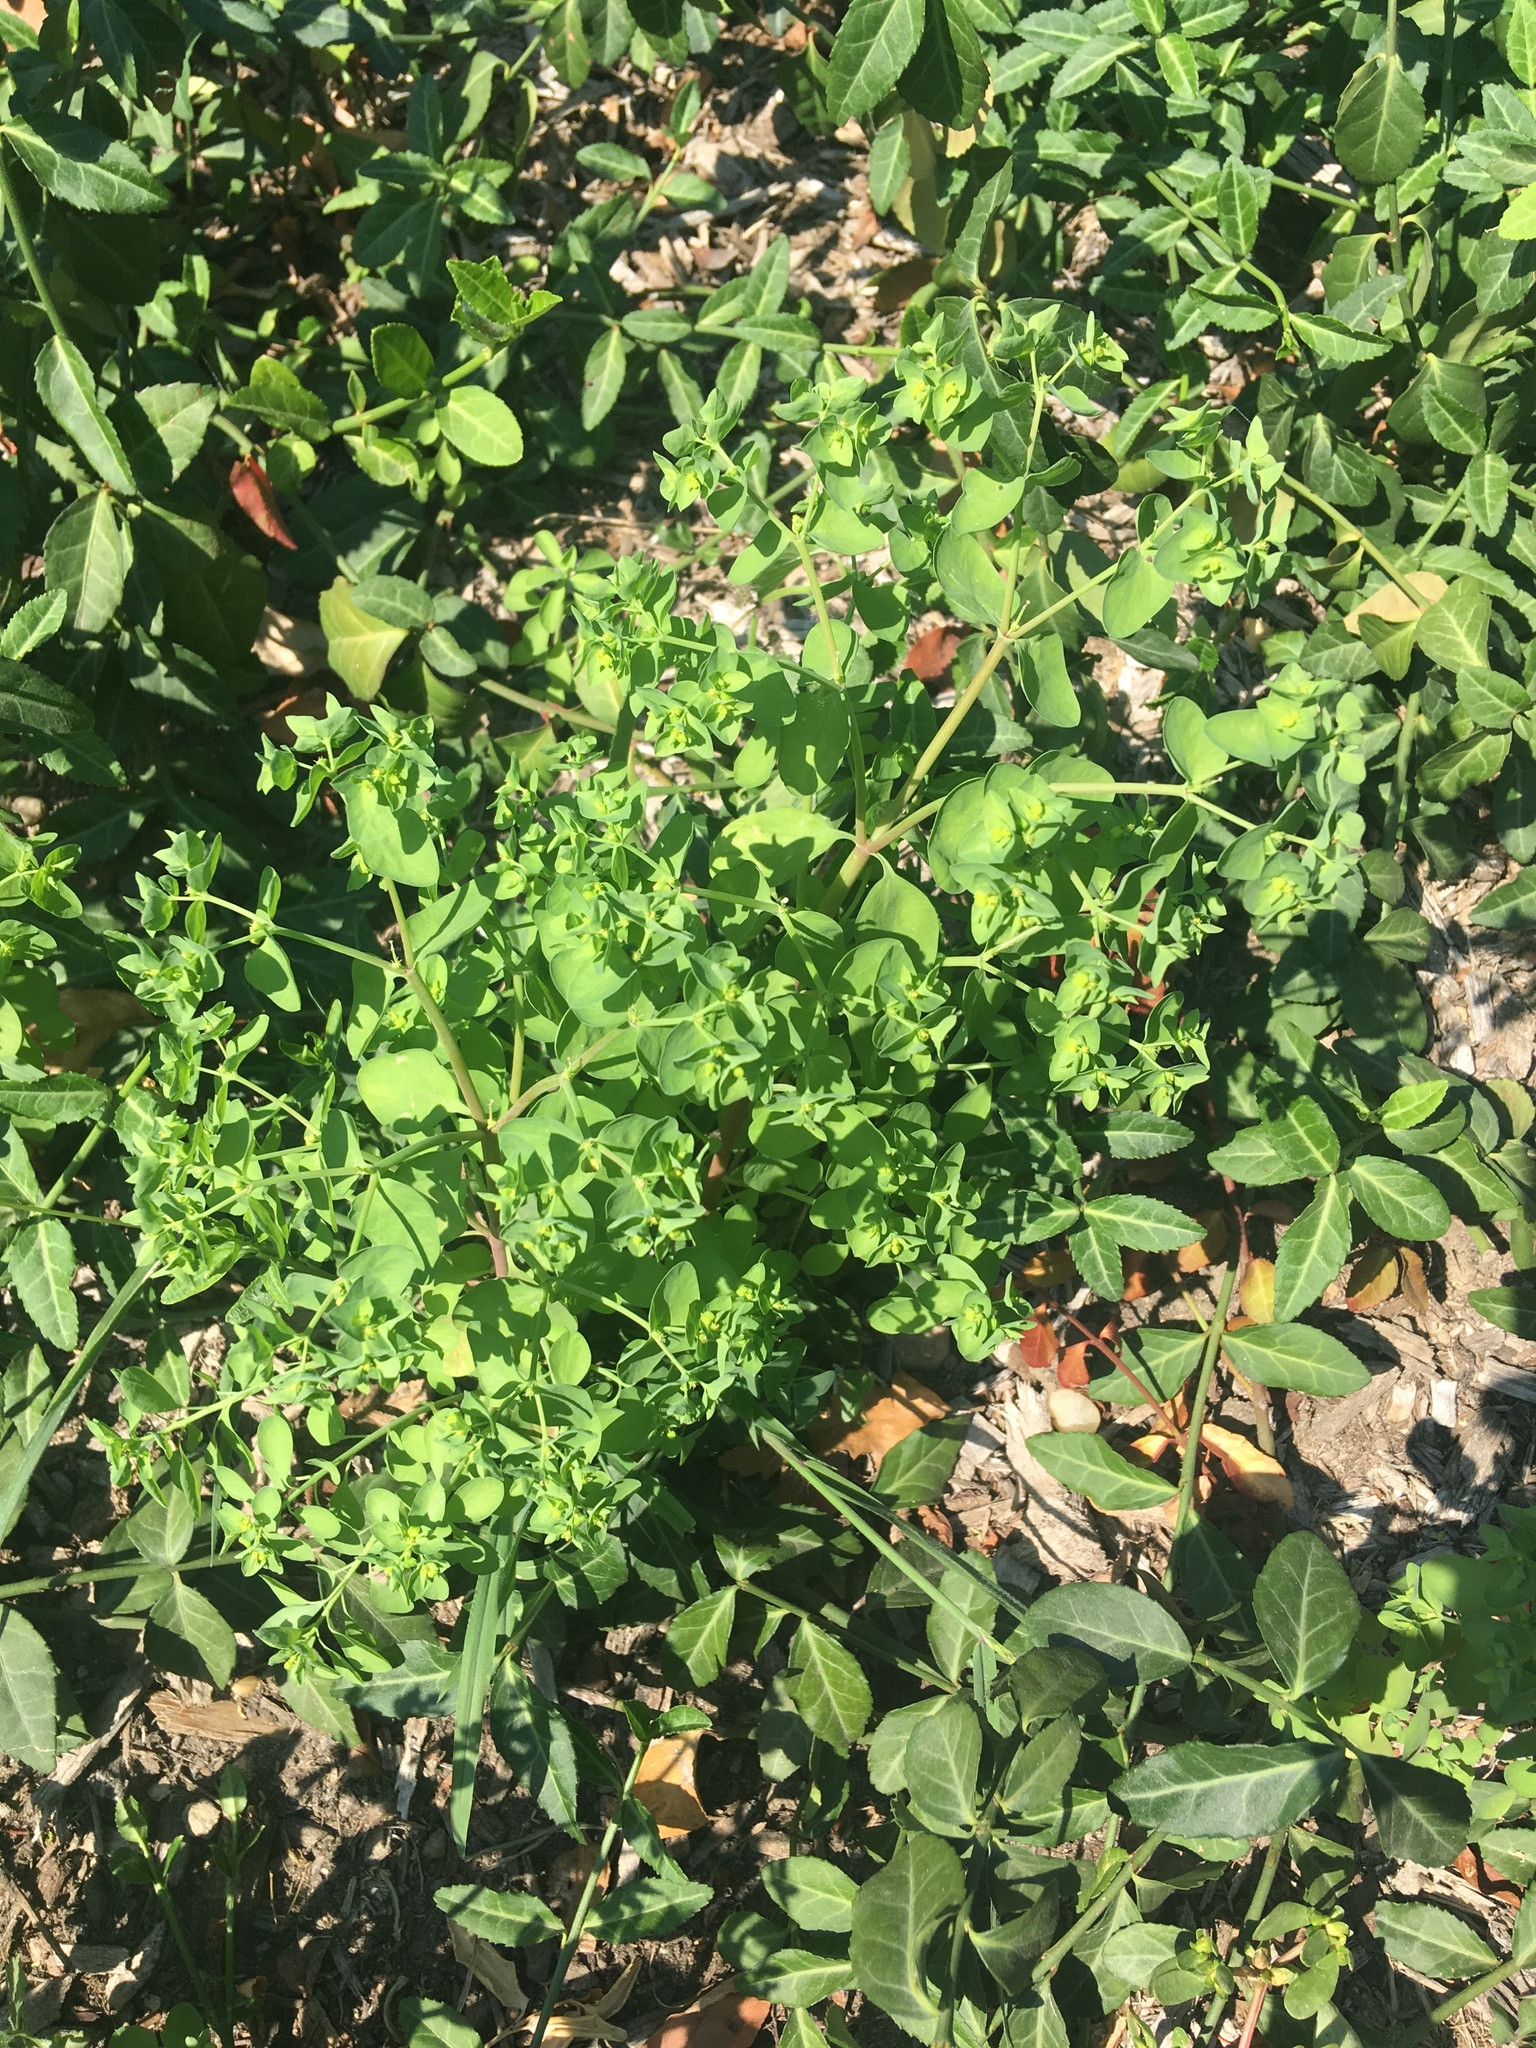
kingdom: Plantae
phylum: Tracheophyta
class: Magnoliopsida
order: Malpighiales
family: Euphorbiaceae
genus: Euphorbia
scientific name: Euphorbia peplus
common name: Petty spurge
